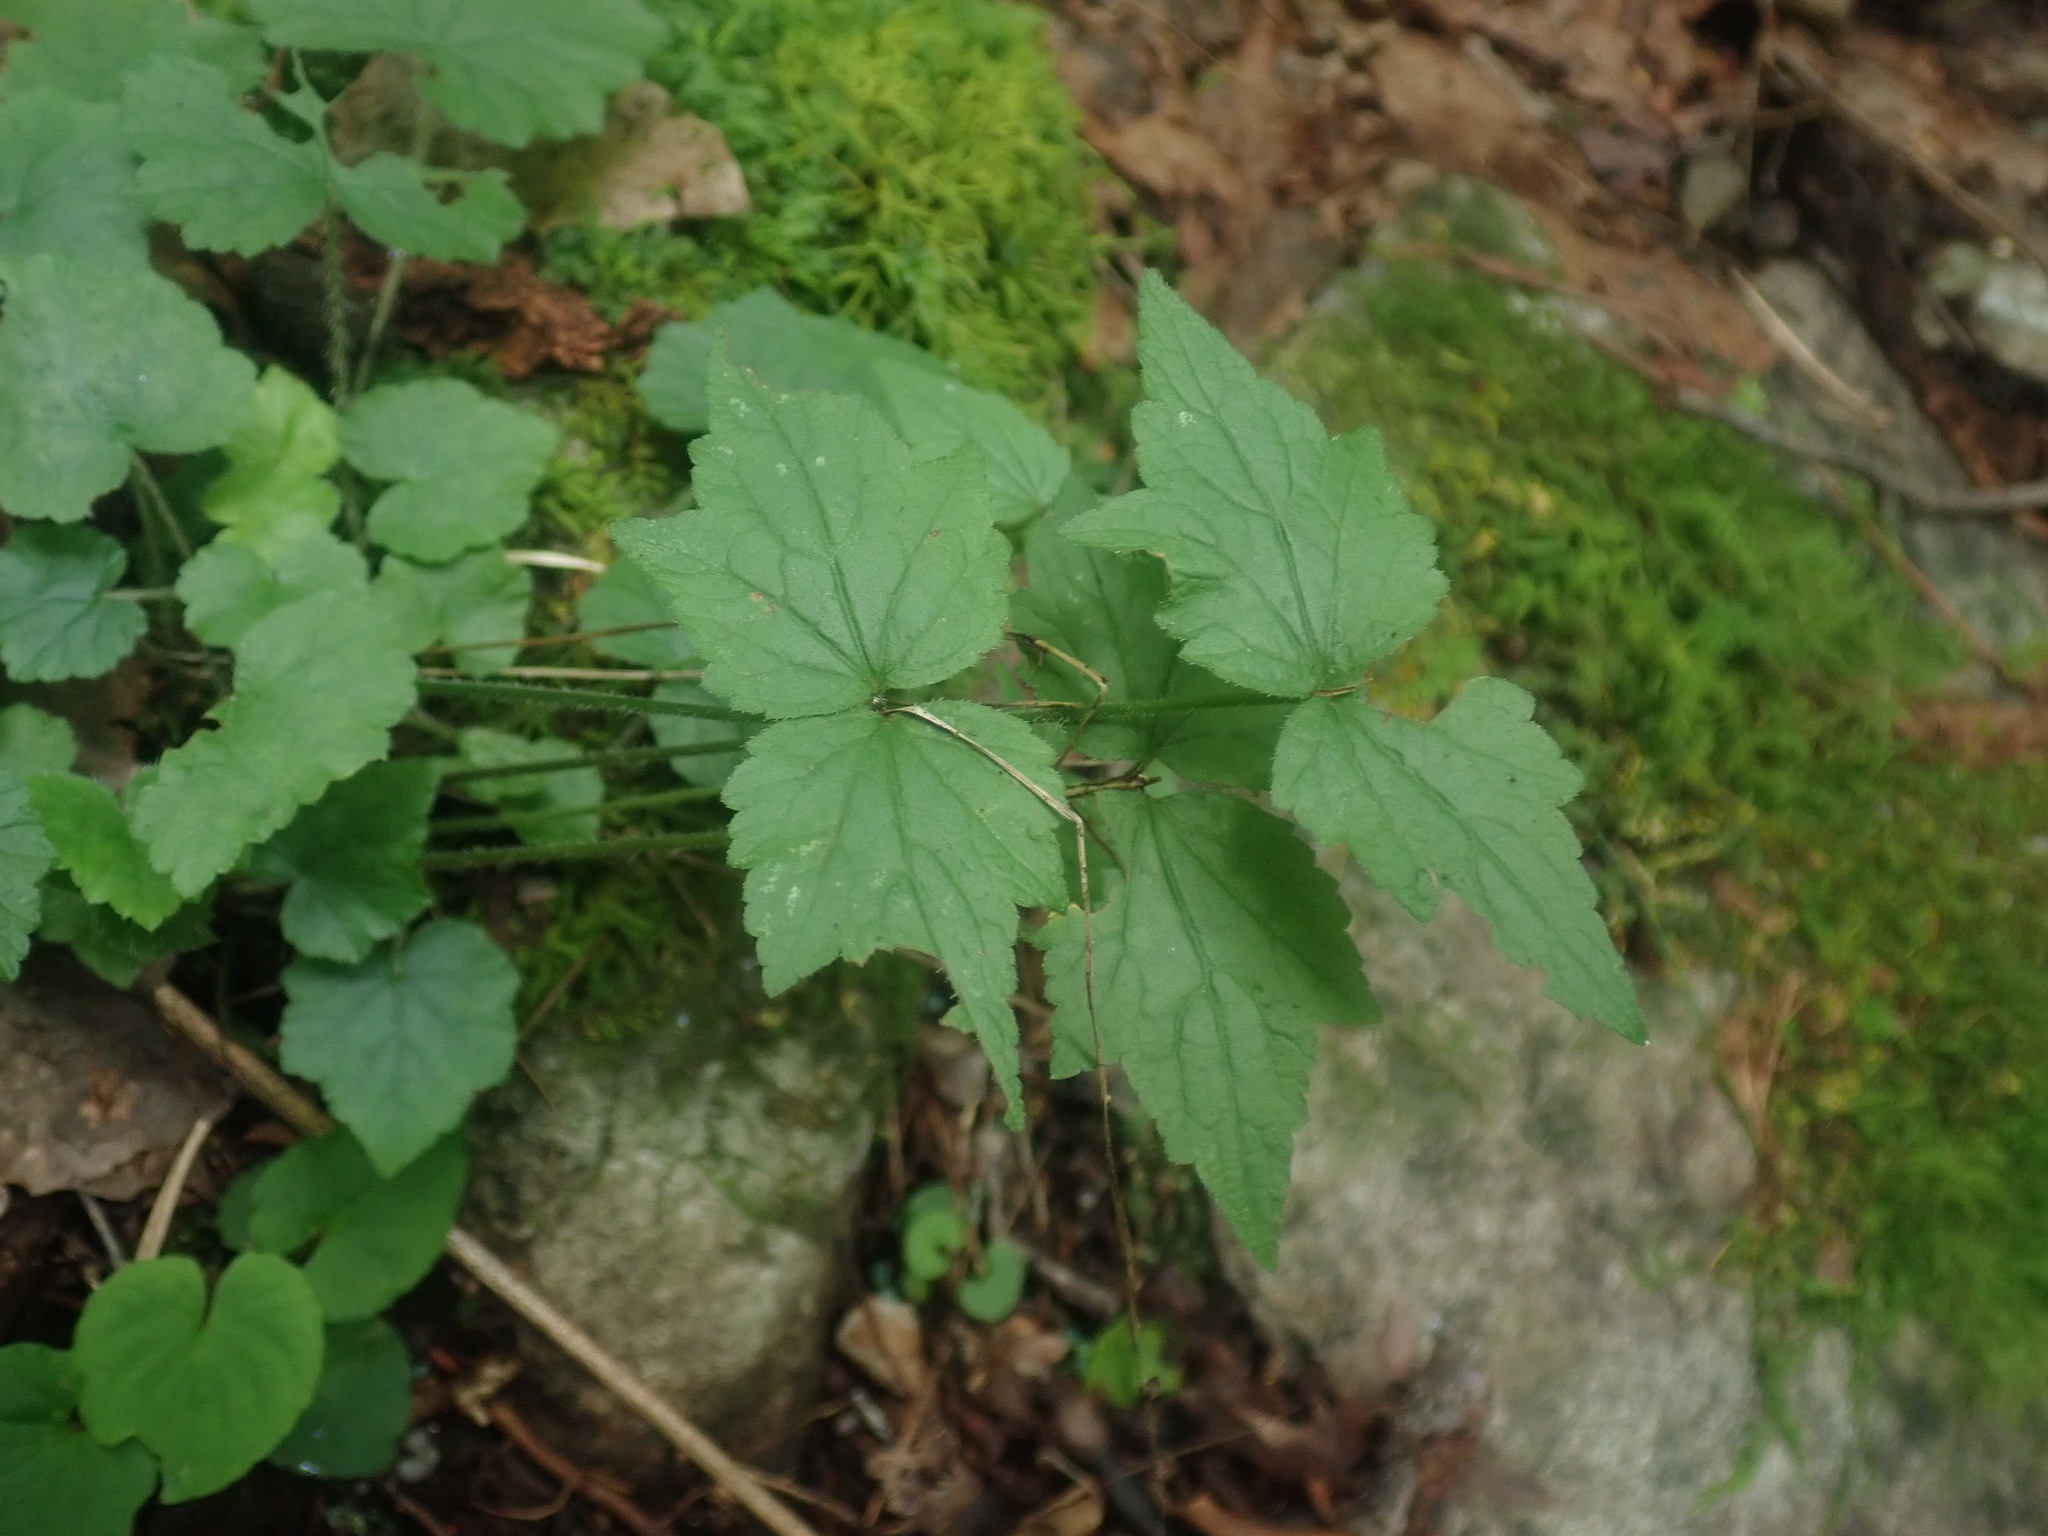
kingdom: Plantae
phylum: Tracheophyta
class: Magnoliopsida
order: Saxifragales
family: Saxifragaceae
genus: Mitella
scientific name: Mitella diphylla
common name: Coolwort
